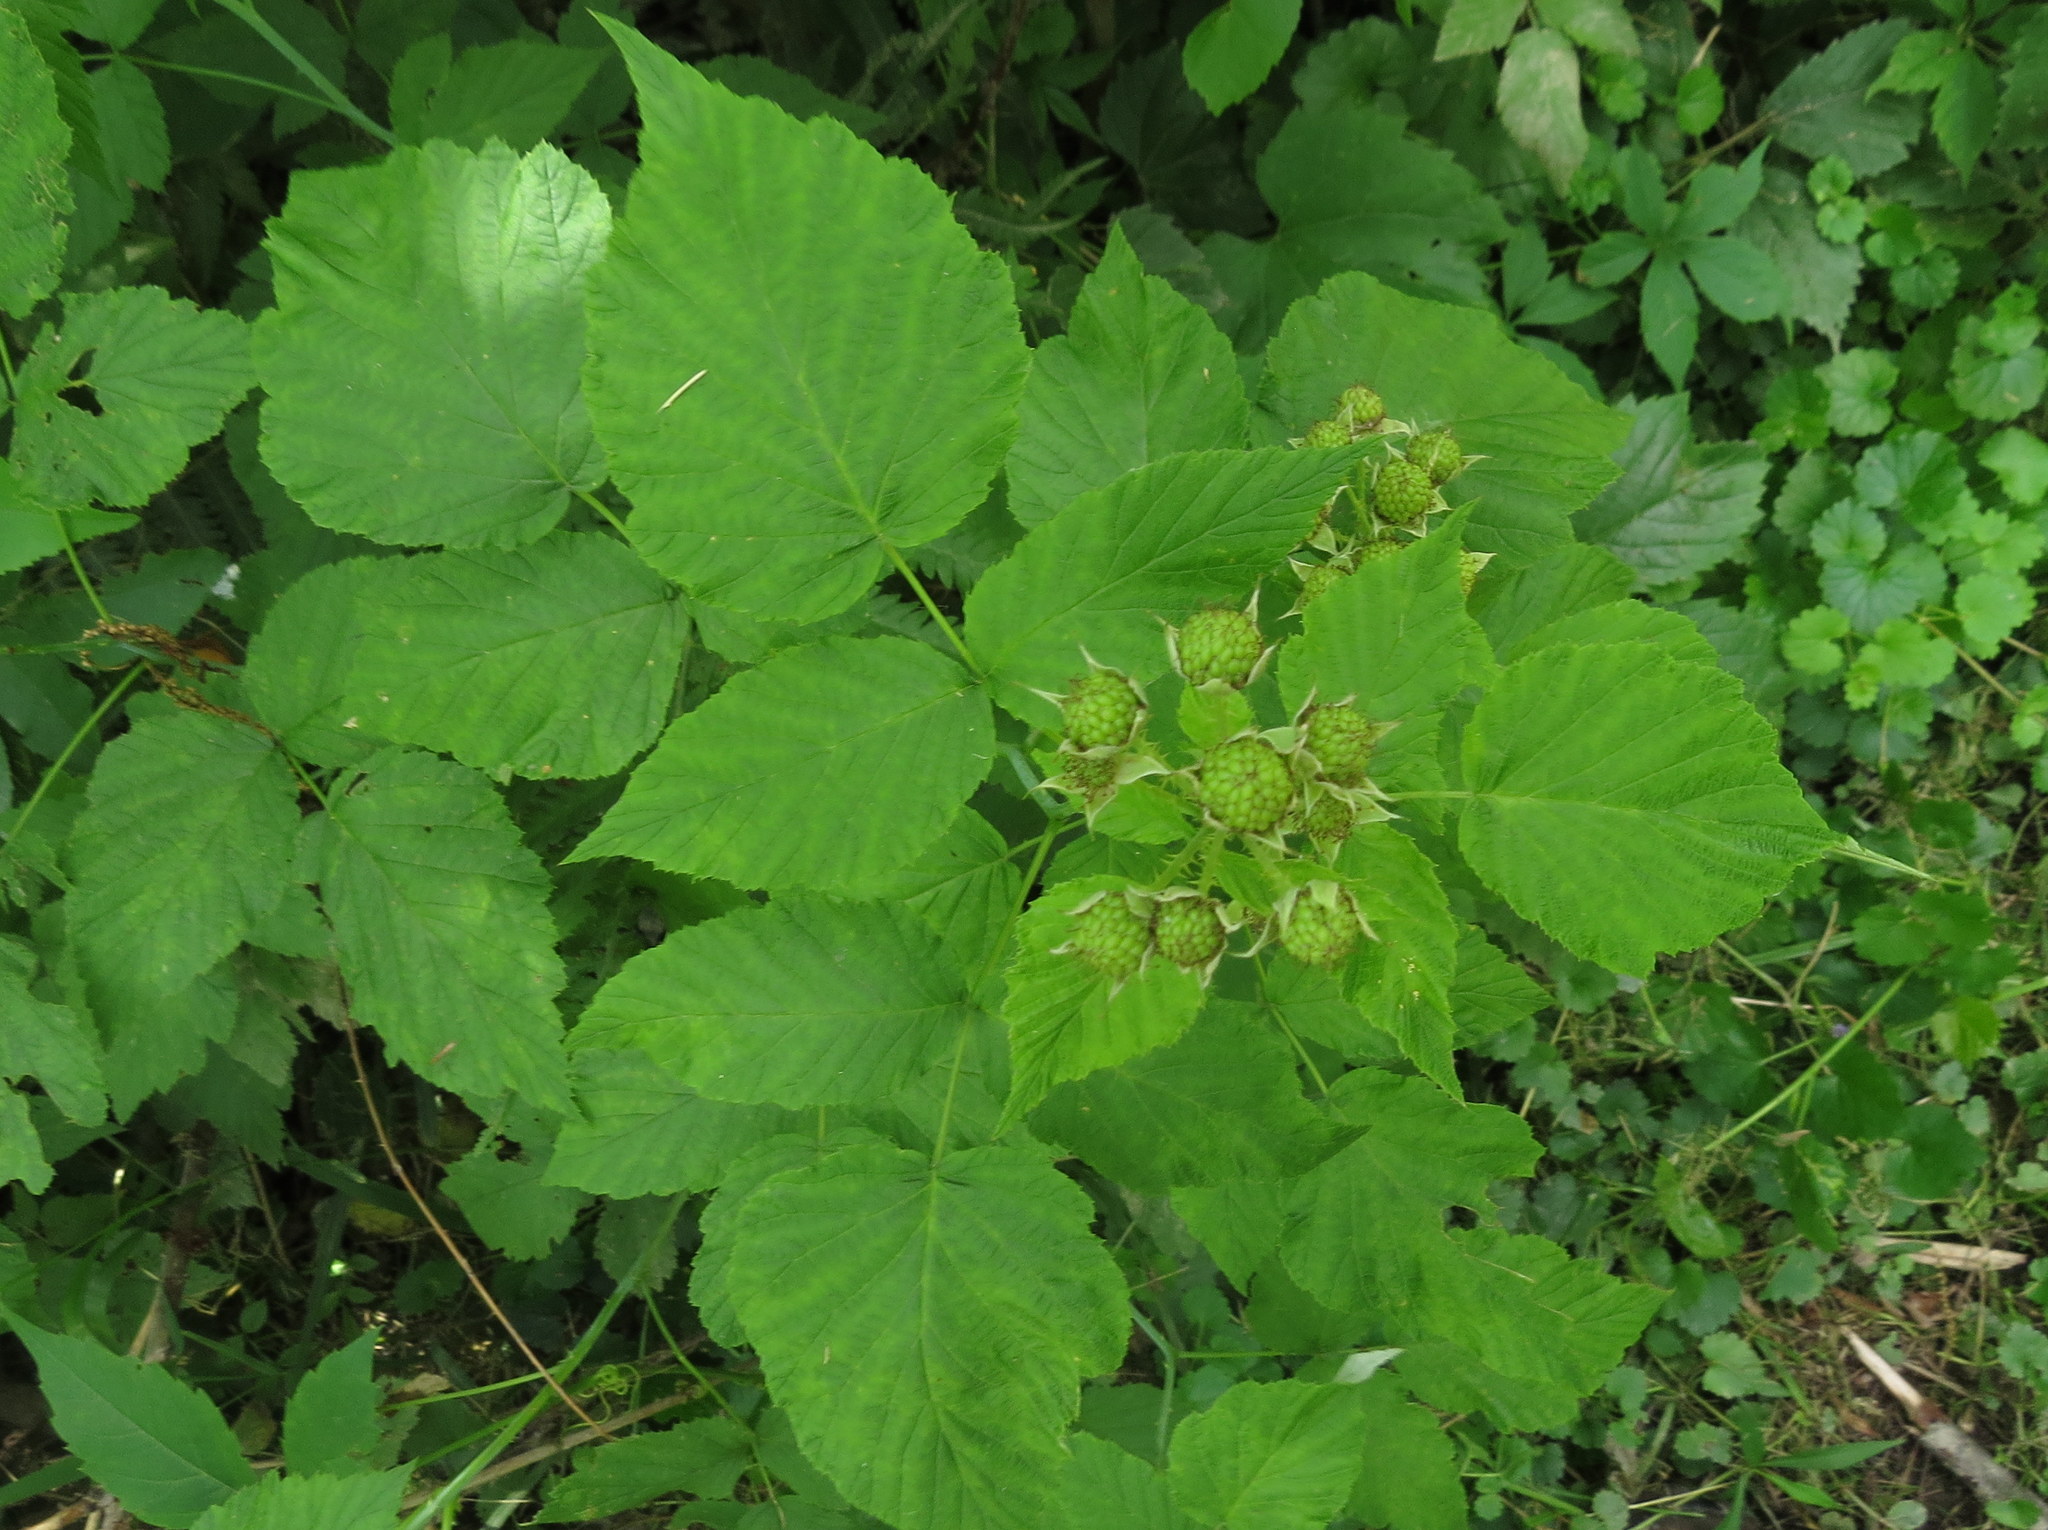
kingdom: Plantae
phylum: Tracheophyta
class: Magnoliopsida
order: Rosales
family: Rosaceae
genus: Rubus
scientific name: Rubus occidentalis
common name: Black raspberry
